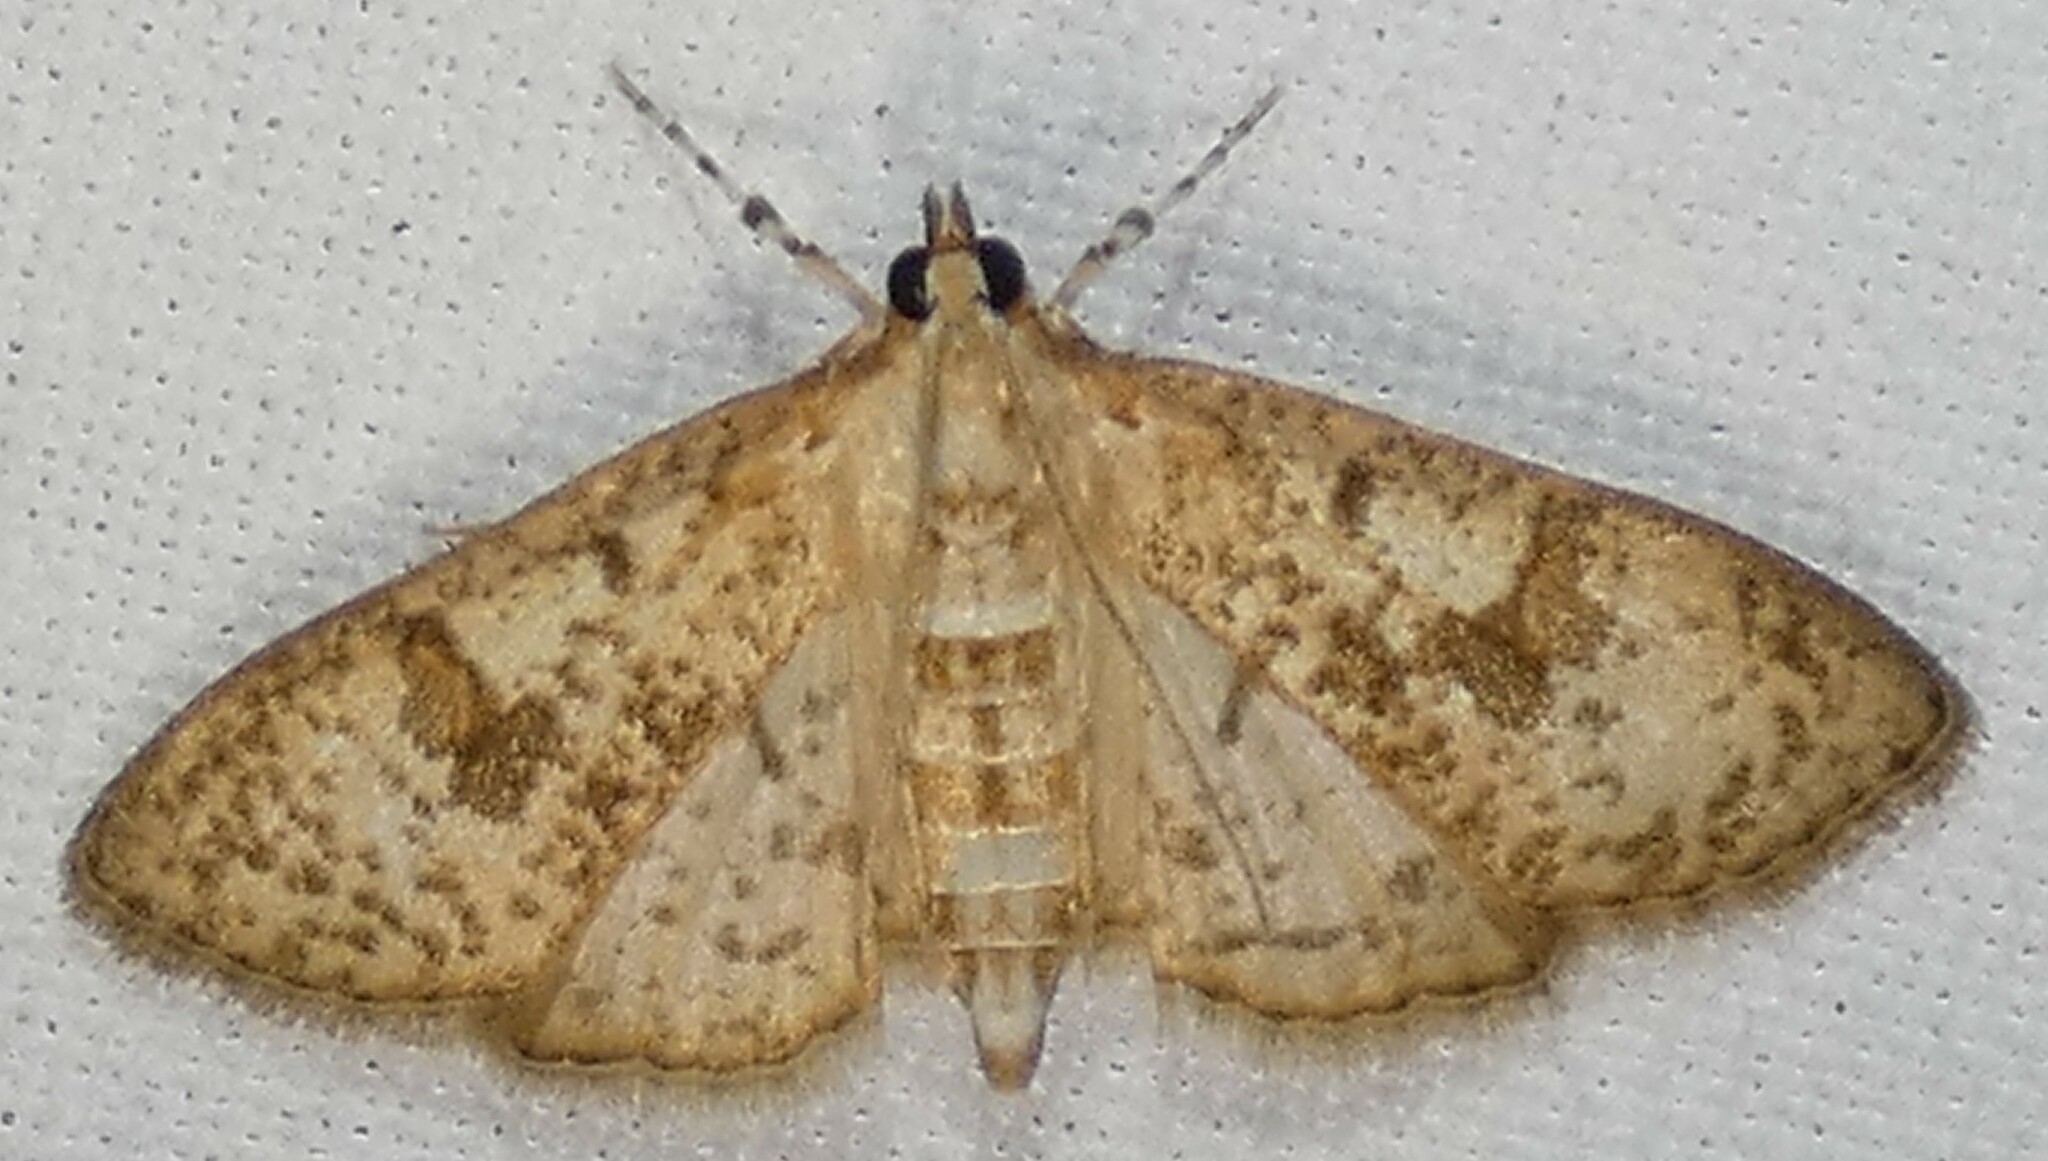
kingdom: Animalia
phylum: Arthropoda
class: Insecta
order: Lepidoptera
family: Crambidae
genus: Palpita
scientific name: Palpita freemanalis
